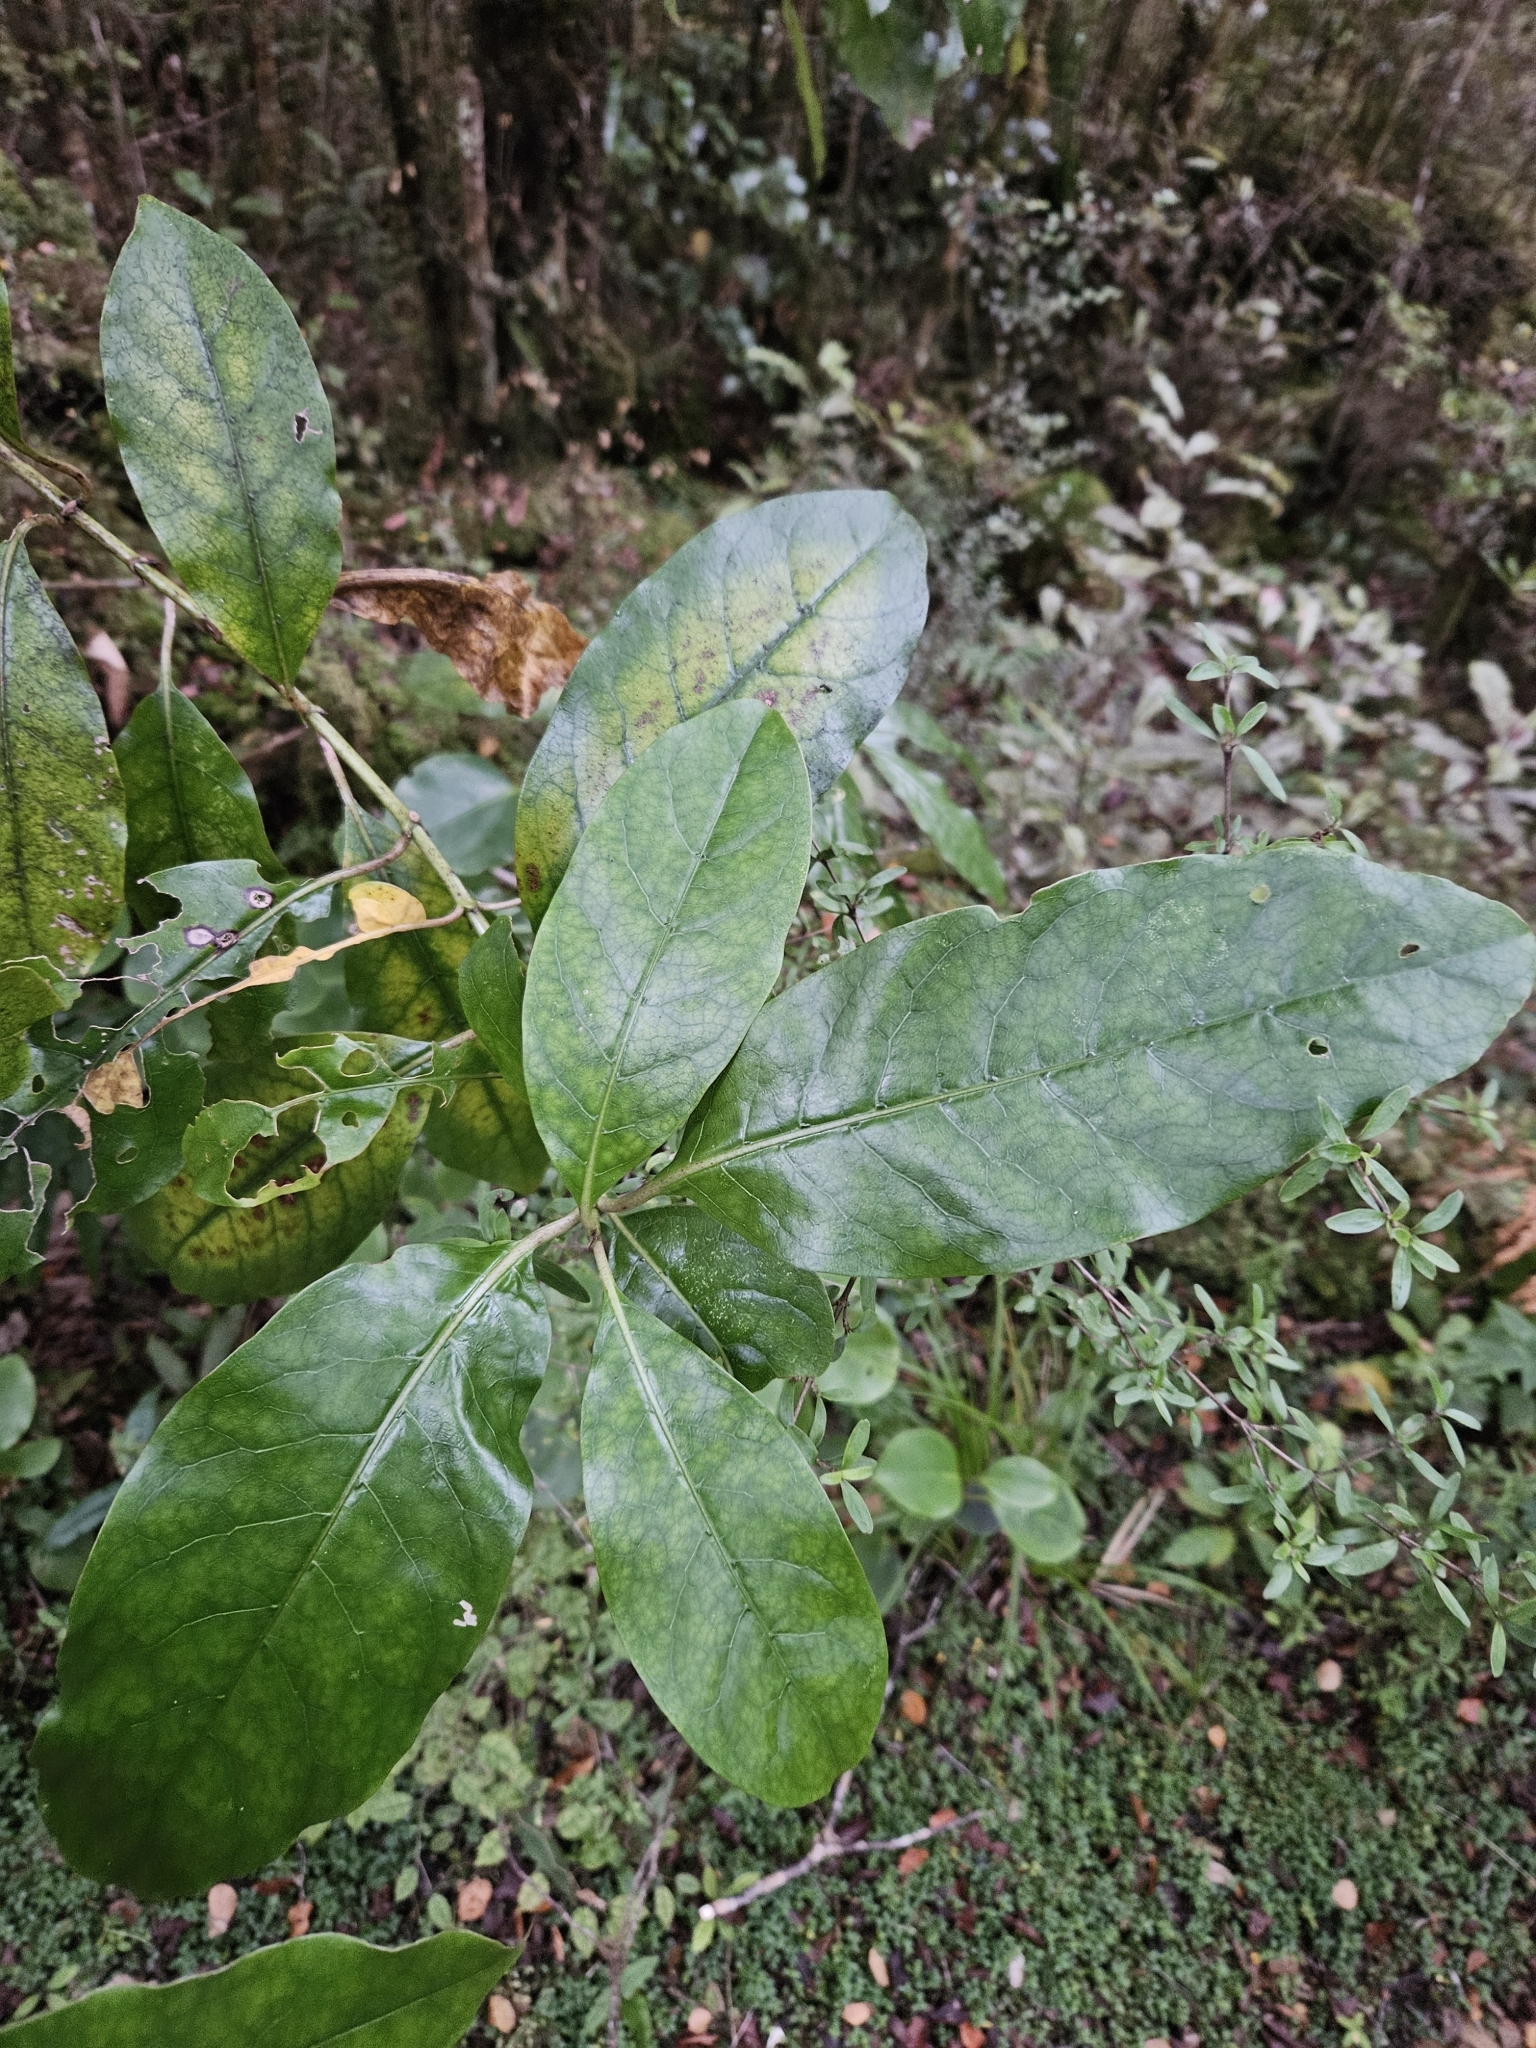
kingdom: Plantae
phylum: Tracheophyta
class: Magnoliopsida
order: Gentianales
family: Rubiaceae
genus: Coprosma
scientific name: Coprosma autumnalis
